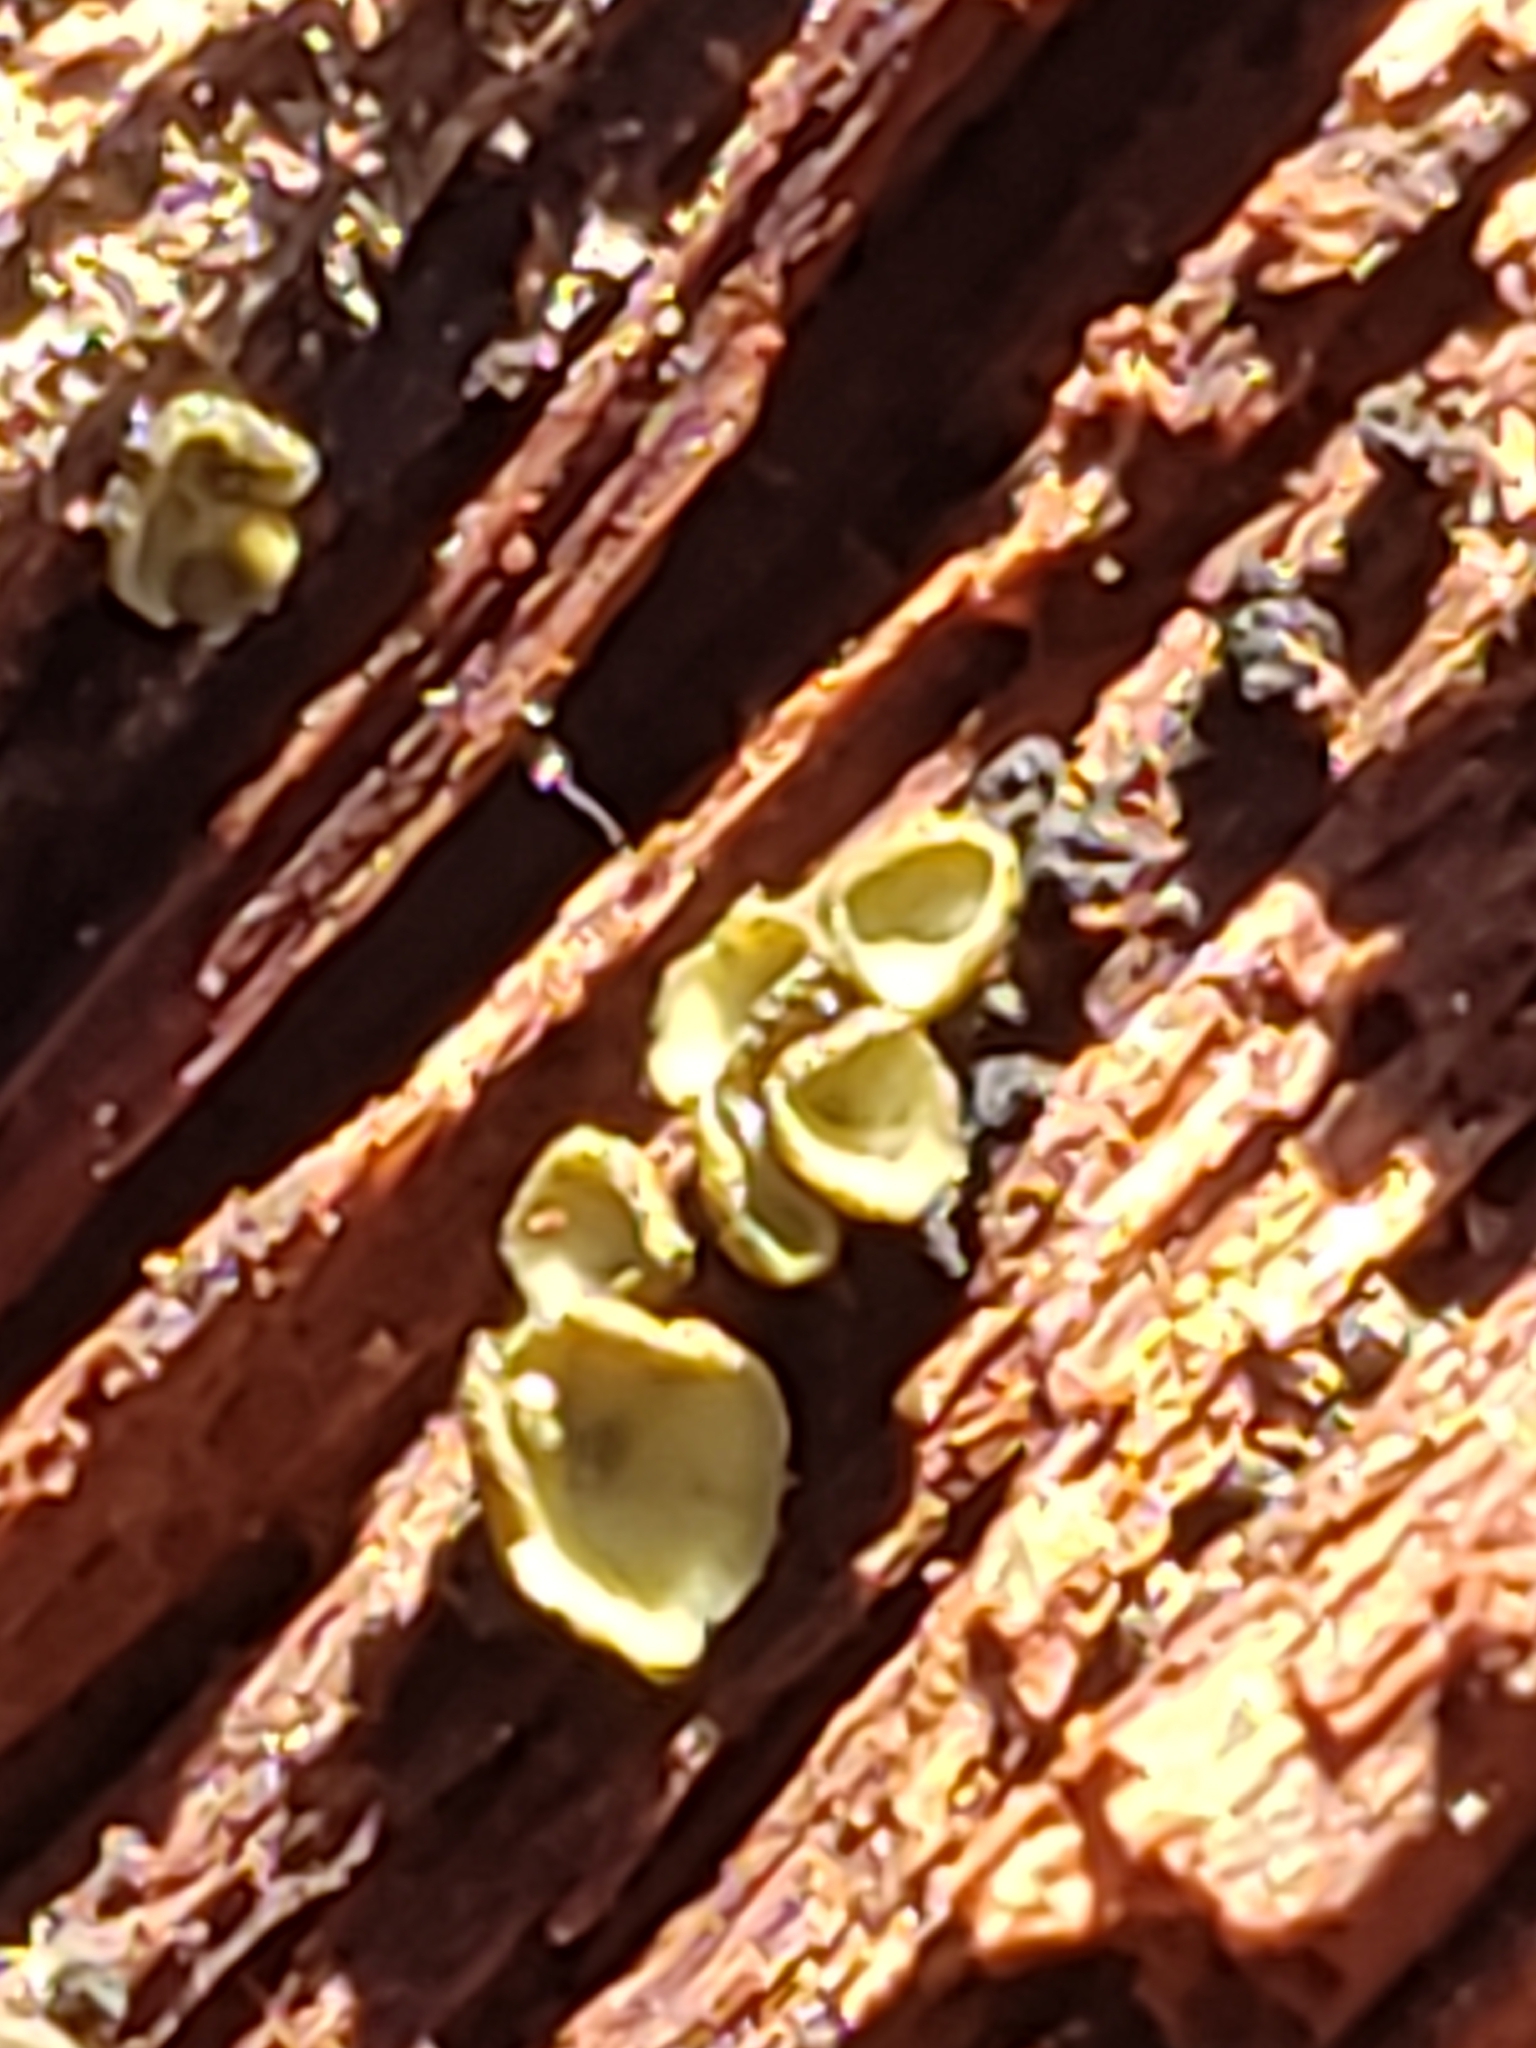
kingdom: Fungi
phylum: Ascomycota
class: Leotiomycetes
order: Helotiales
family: Chlorospleniaceae
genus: Chlorosplenium
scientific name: Chlorosplenium chlora
